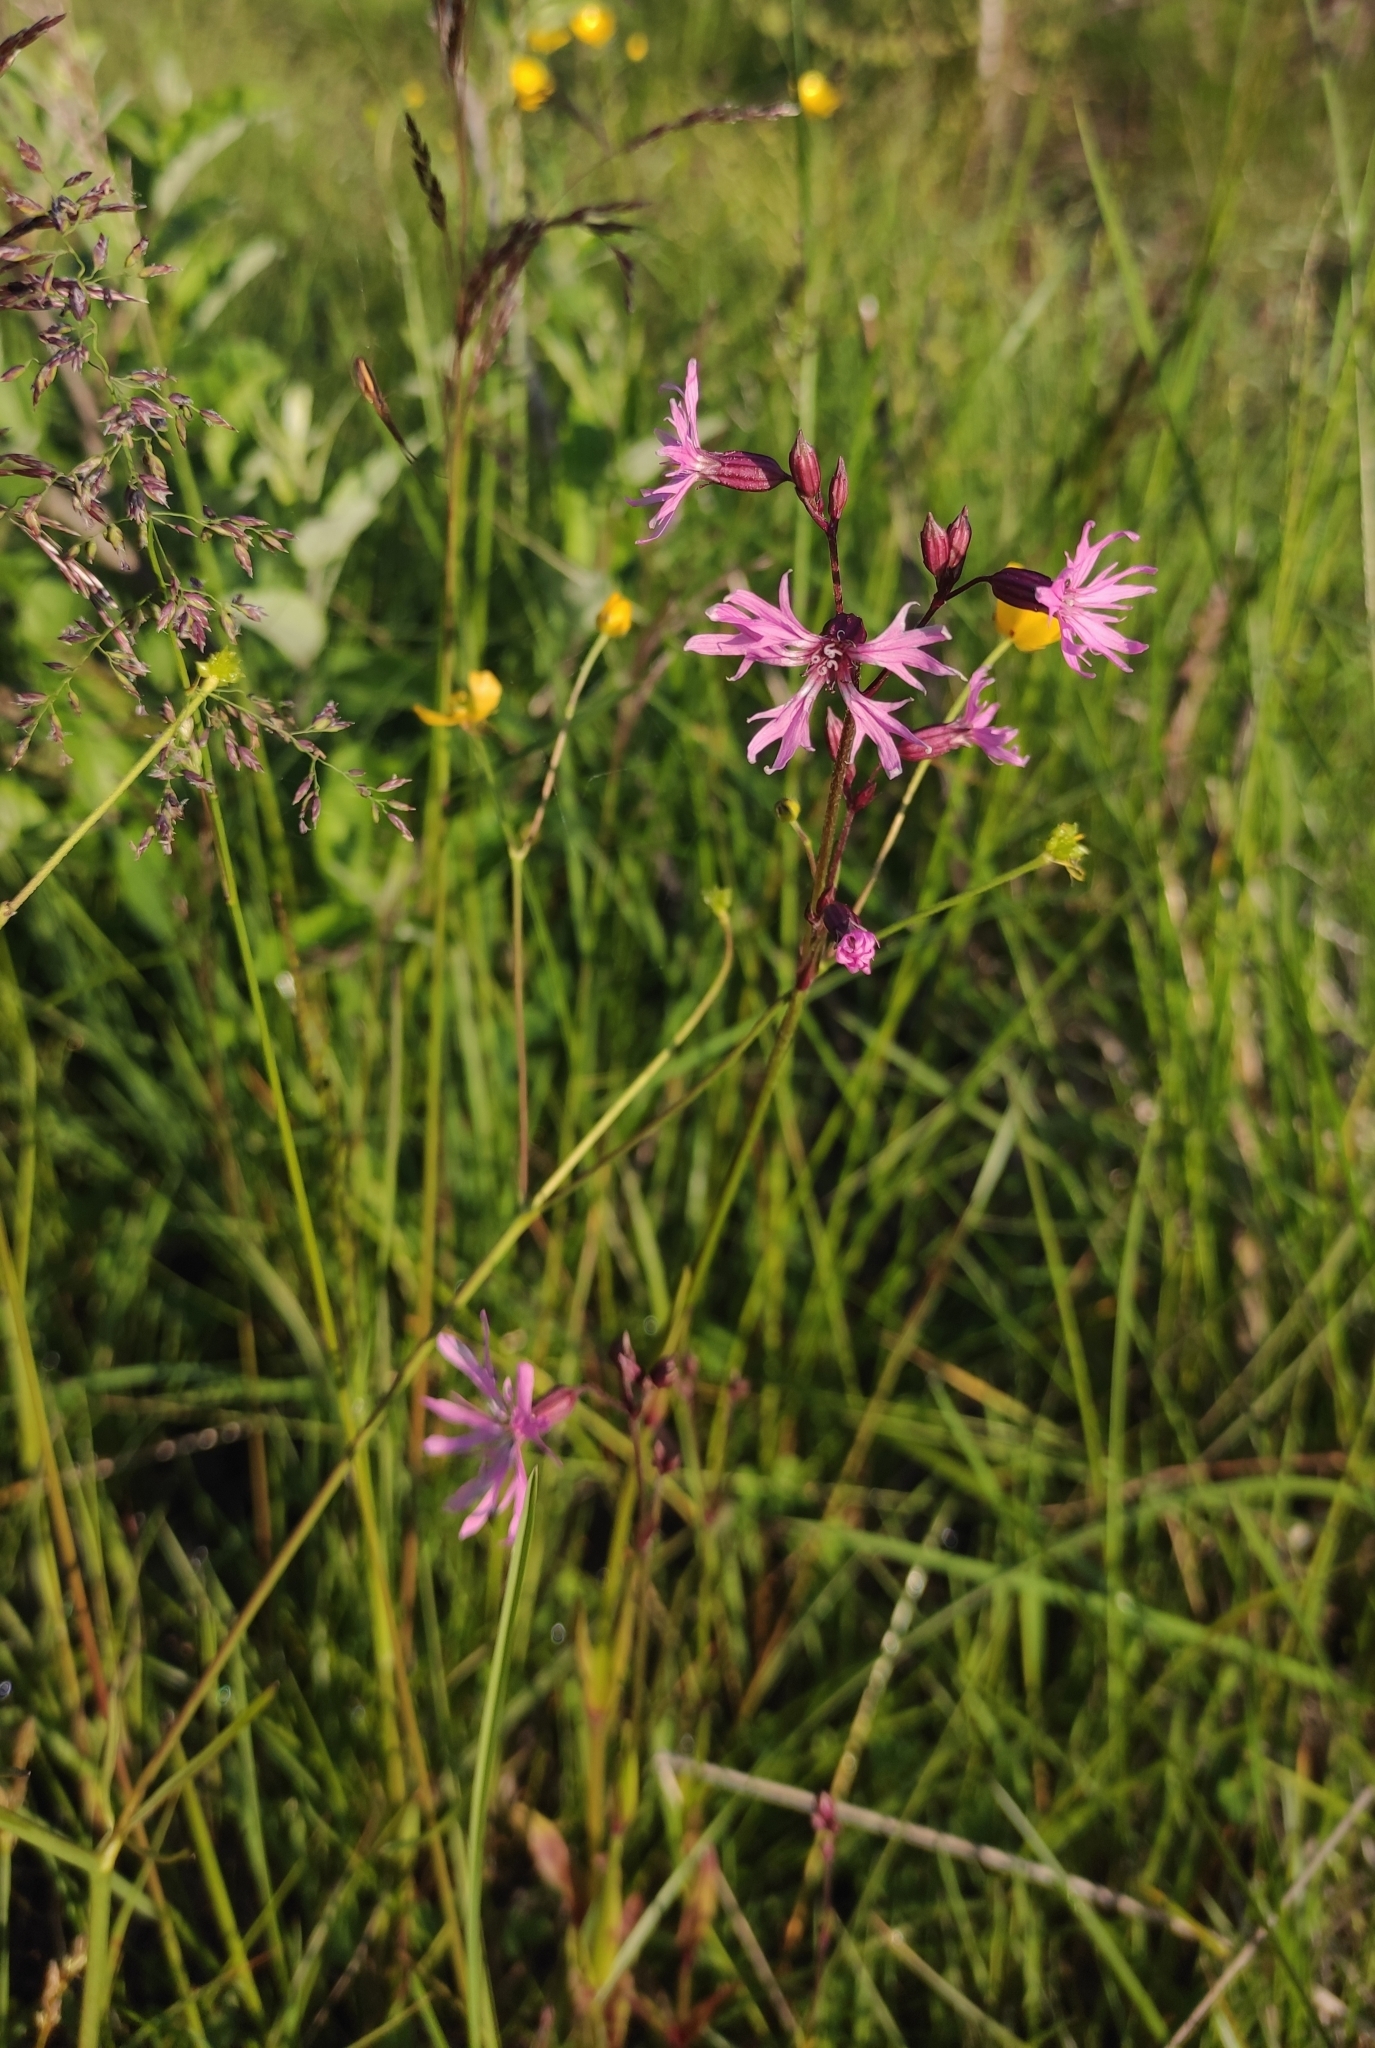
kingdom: Plantae
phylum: Tracheophyta
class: Magnoliopsida
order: Caryophyllales
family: Caryophyllaceae
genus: Silene
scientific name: Silene flos-cuculi
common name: Ragged-robin
